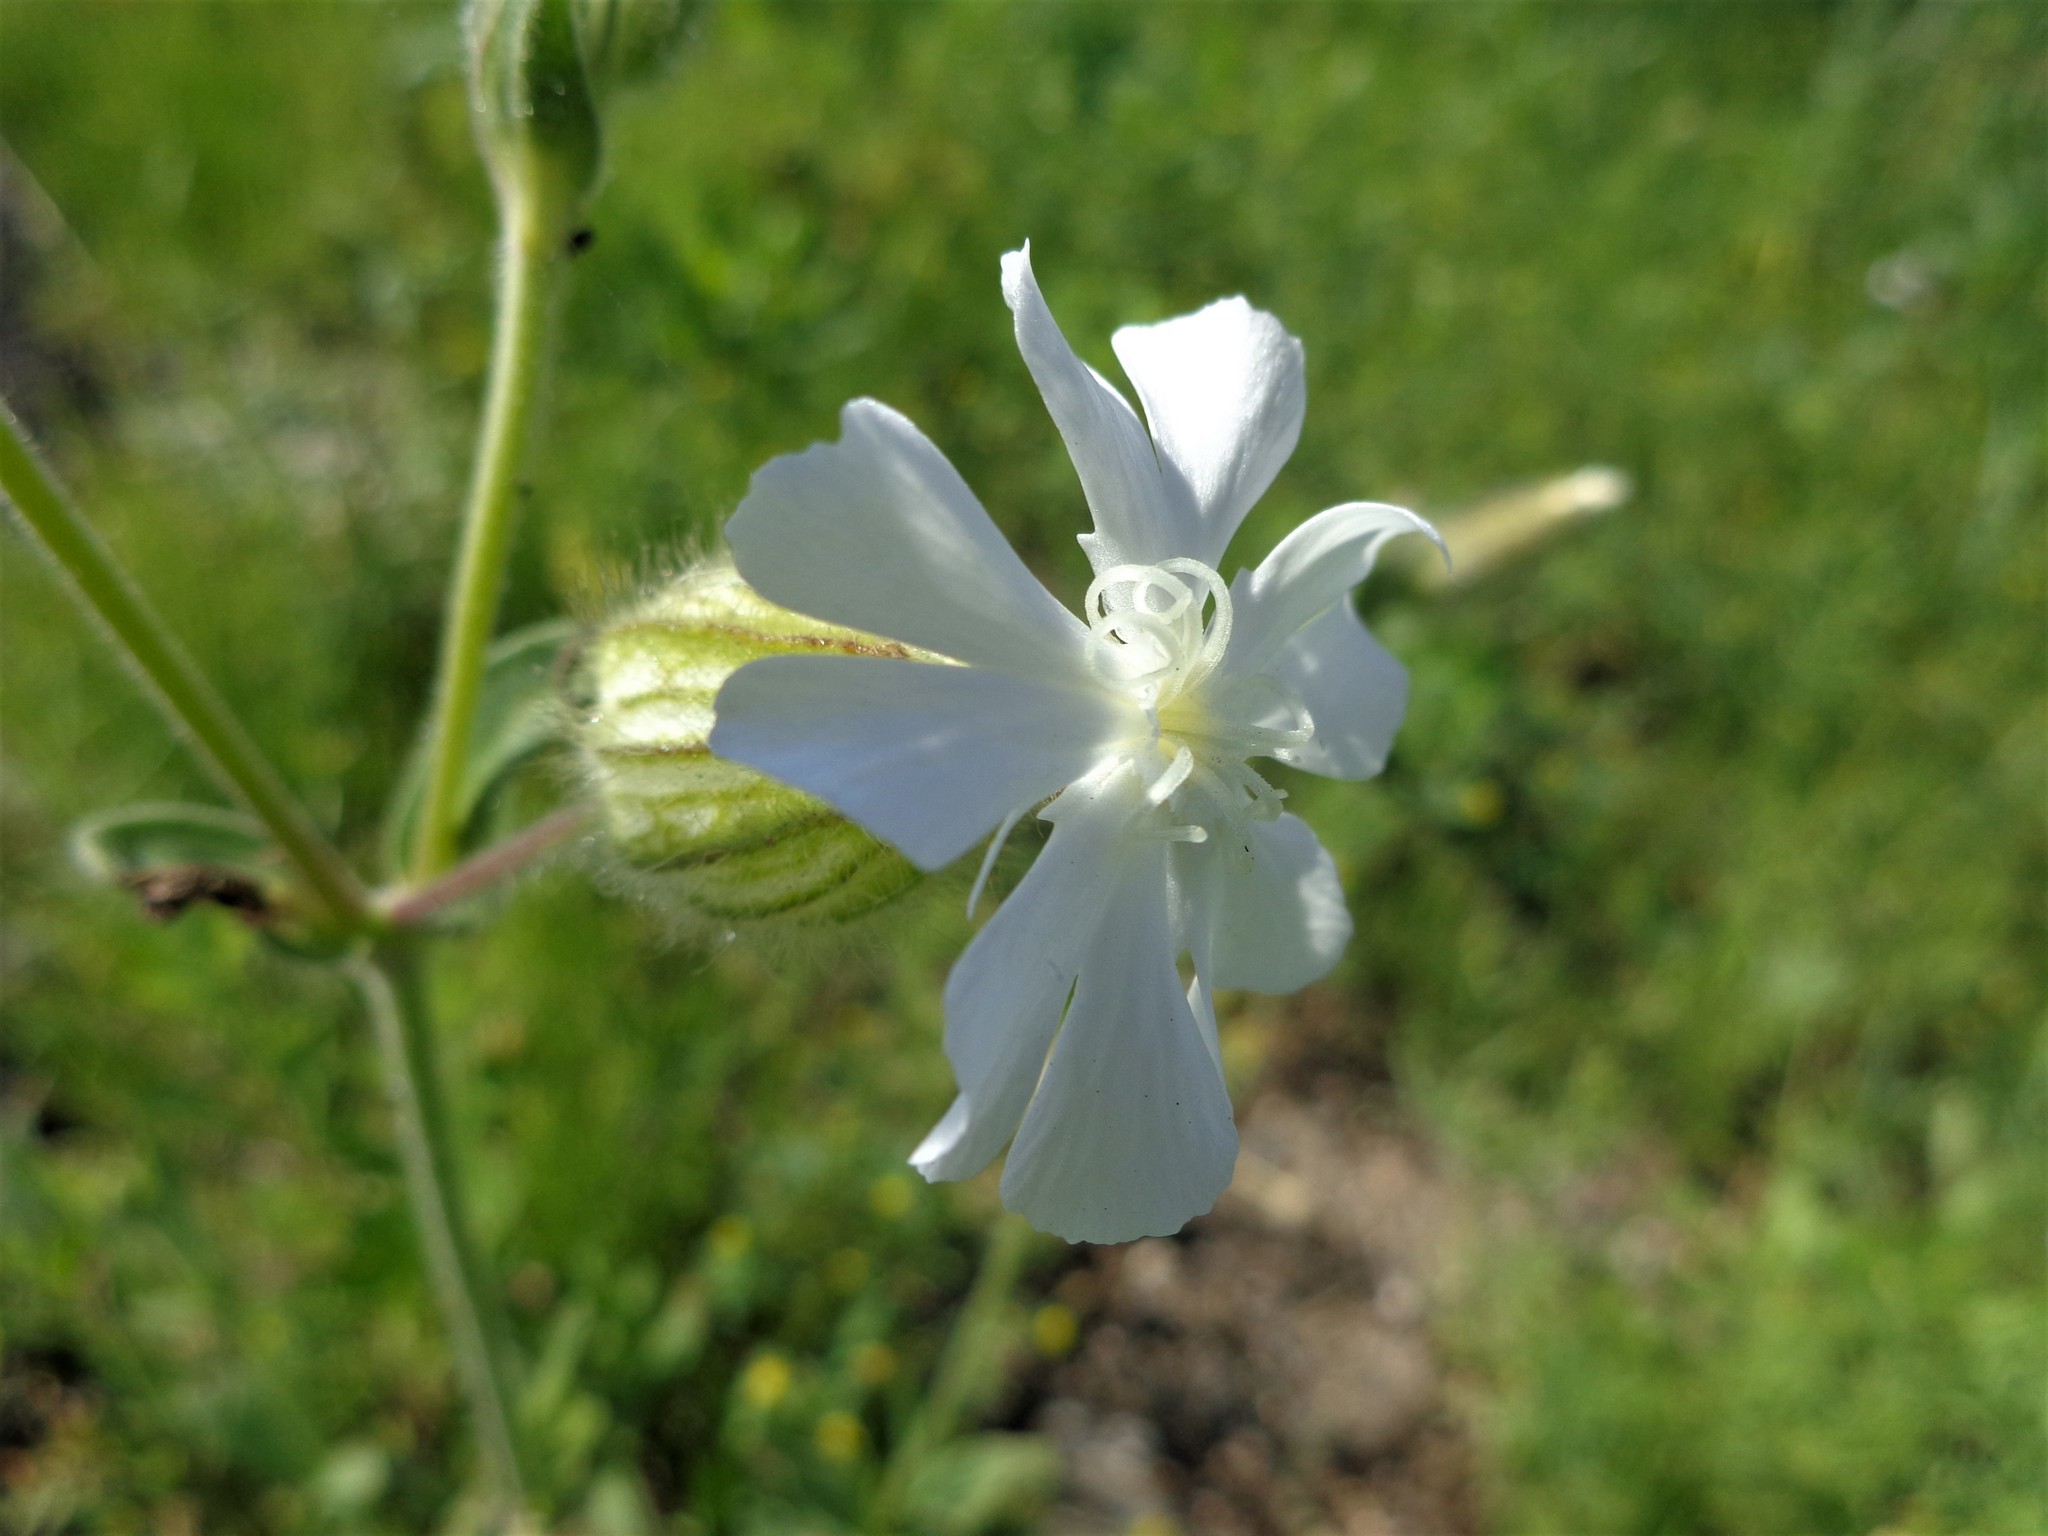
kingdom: Plantae
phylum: Tracheophyta
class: Magnoliopsida
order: Caryophyllales
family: Caryophyllaceae
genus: Silene
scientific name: Silene latifolia
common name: White campion
